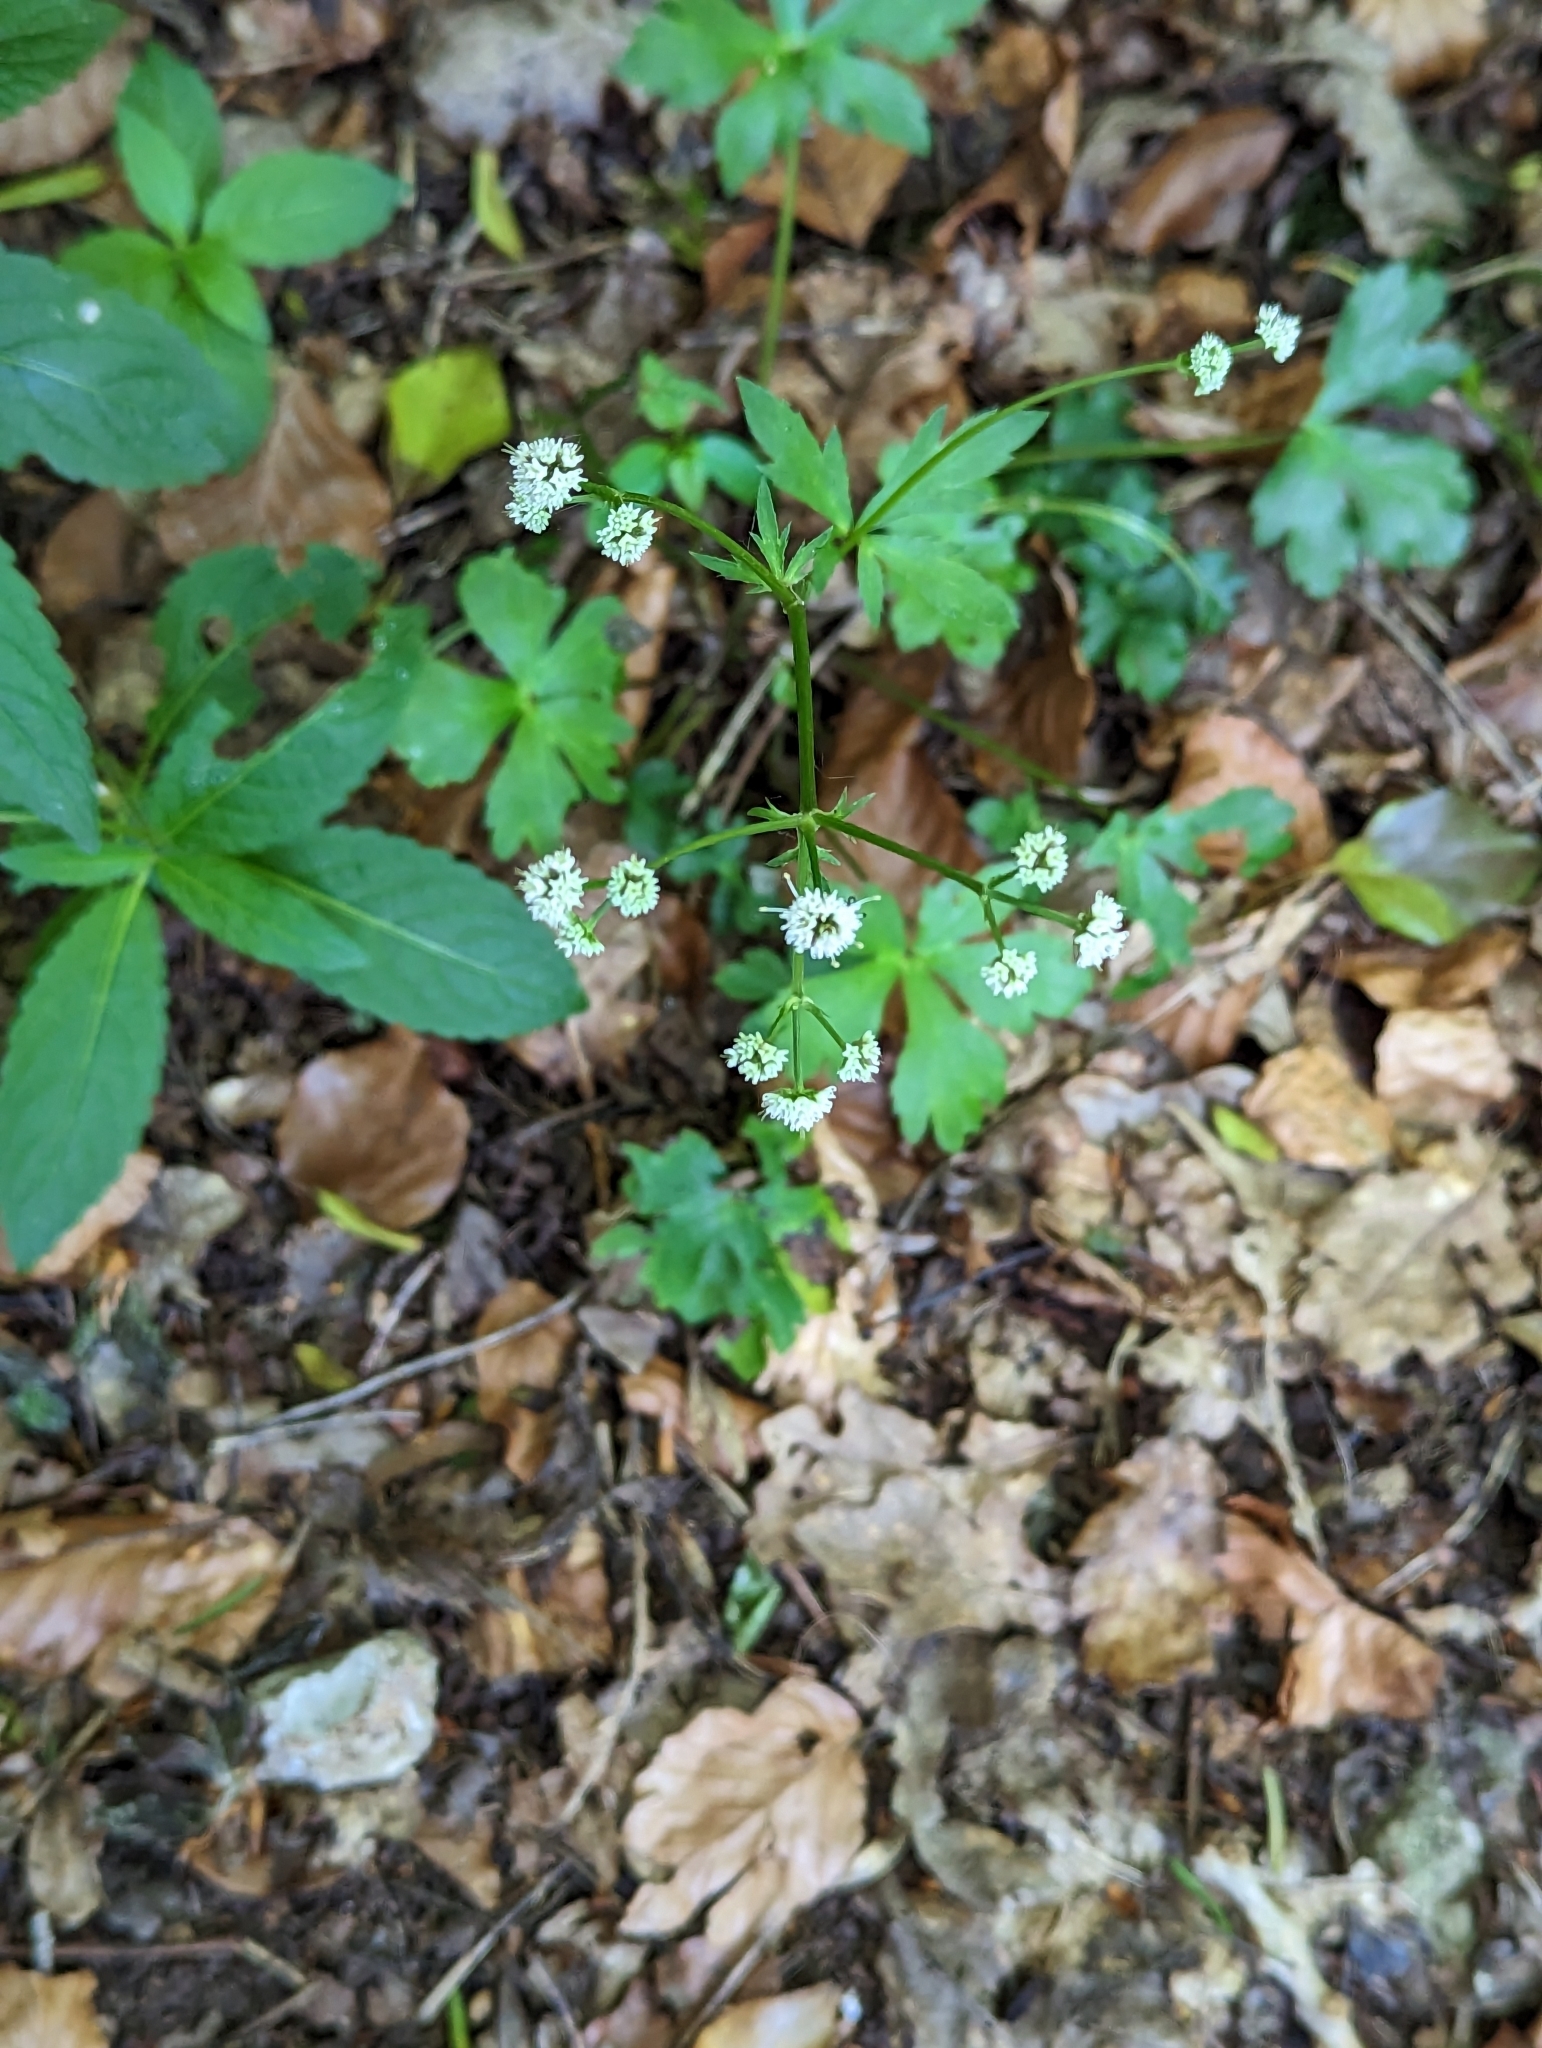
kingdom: Plantae
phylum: Tracheophyta
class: Magnoliopsida
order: Apiales
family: Apiaceae
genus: Sanicula
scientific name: Sanicula europaea
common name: Sanicle
